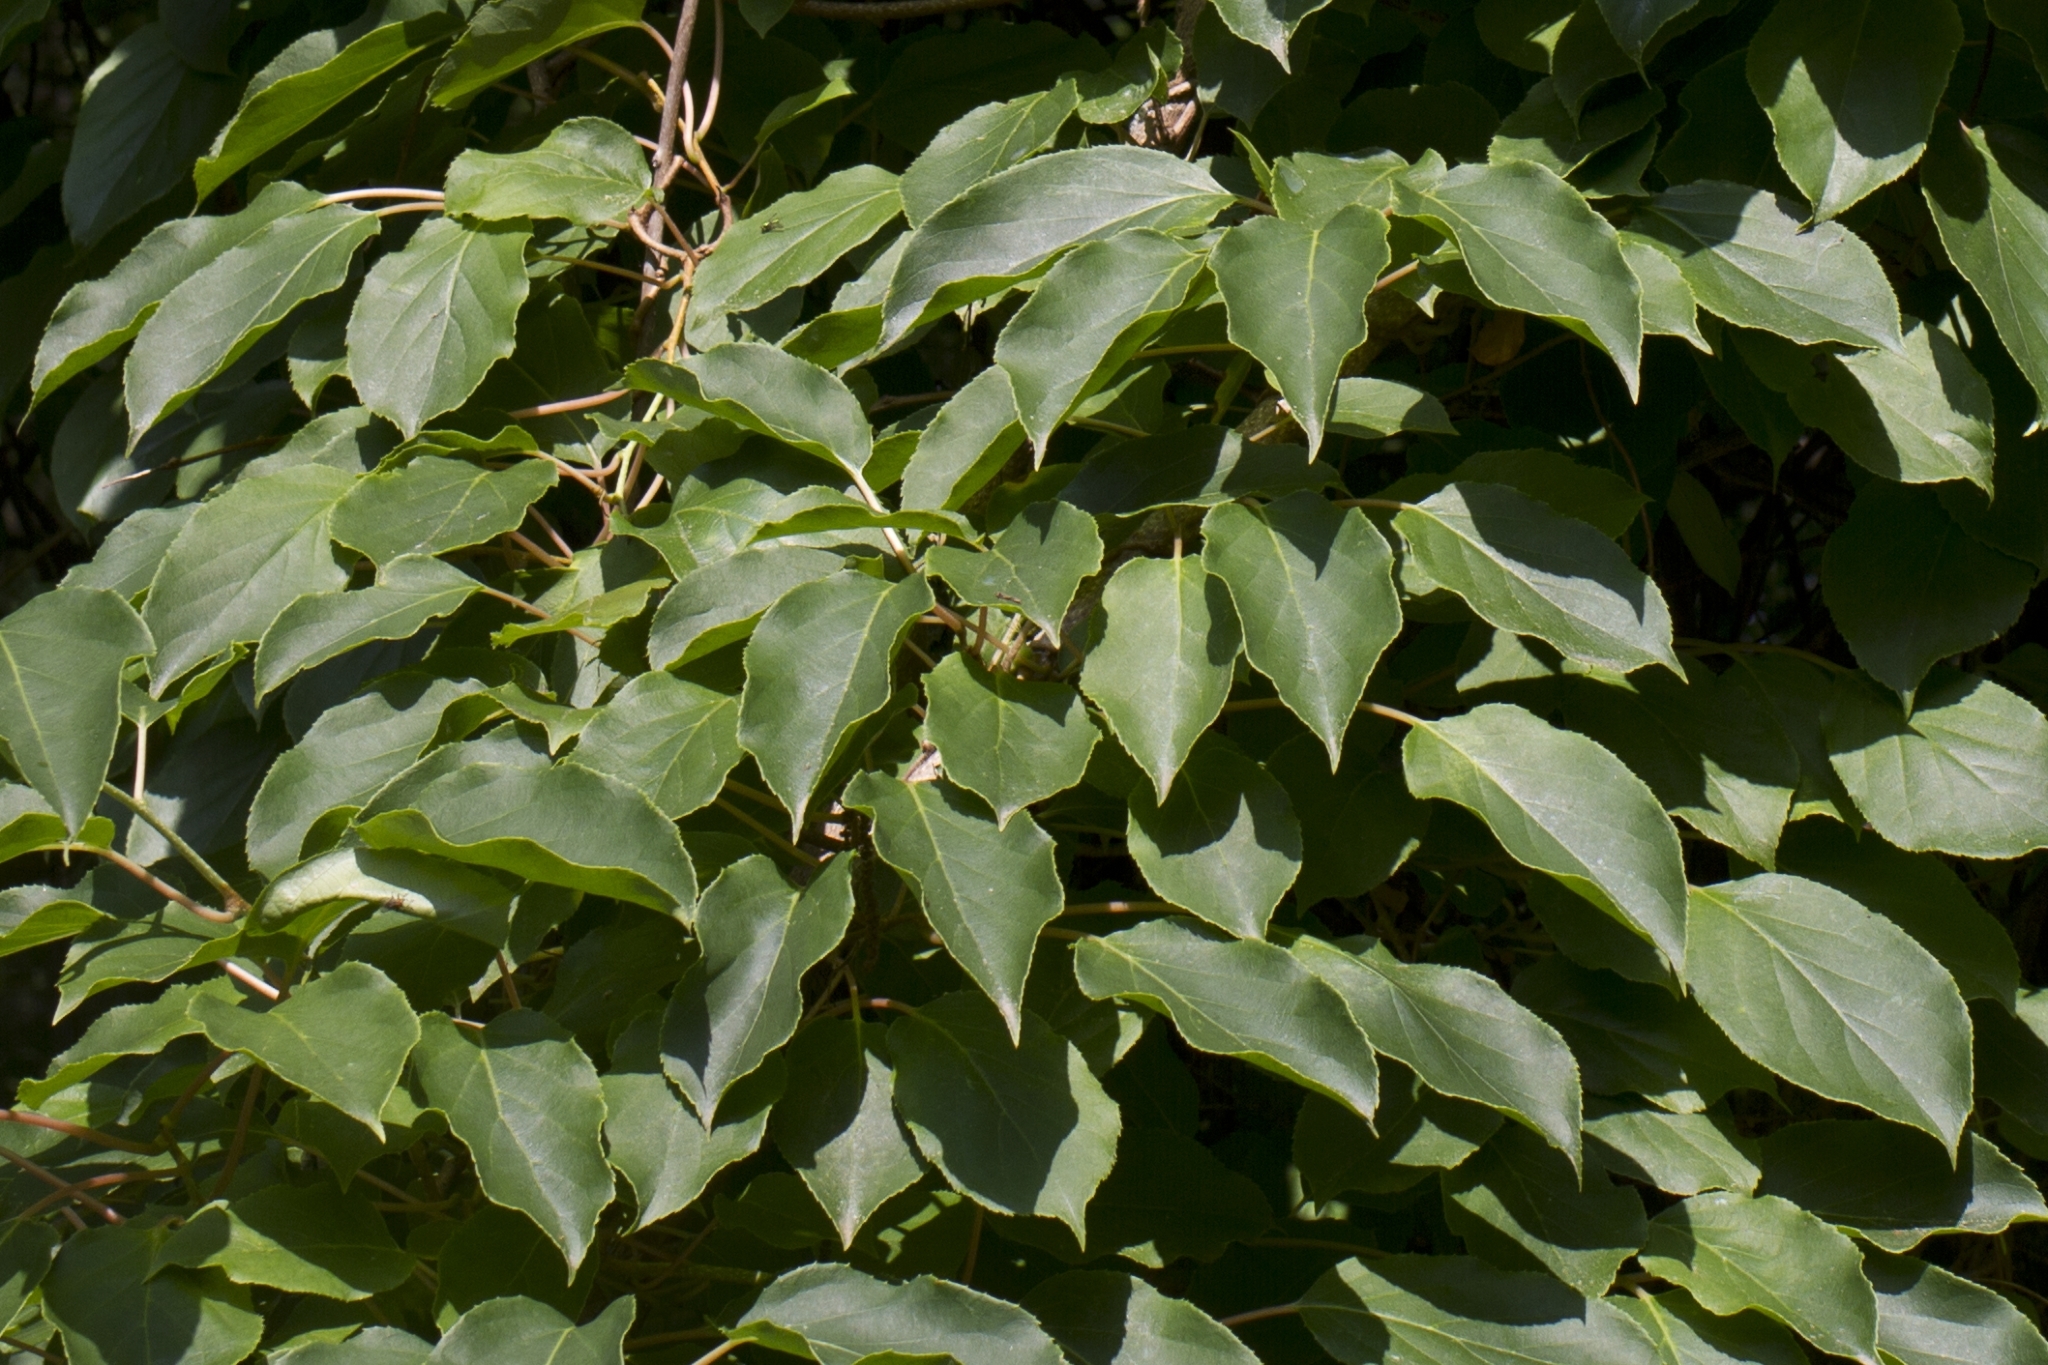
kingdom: Plantae
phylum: Tracheophyta
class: Magnoliopsida
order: Ericales
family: Actinidiaceae
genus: Actinidia
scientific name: Actinidia arguta
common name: Tara vine
